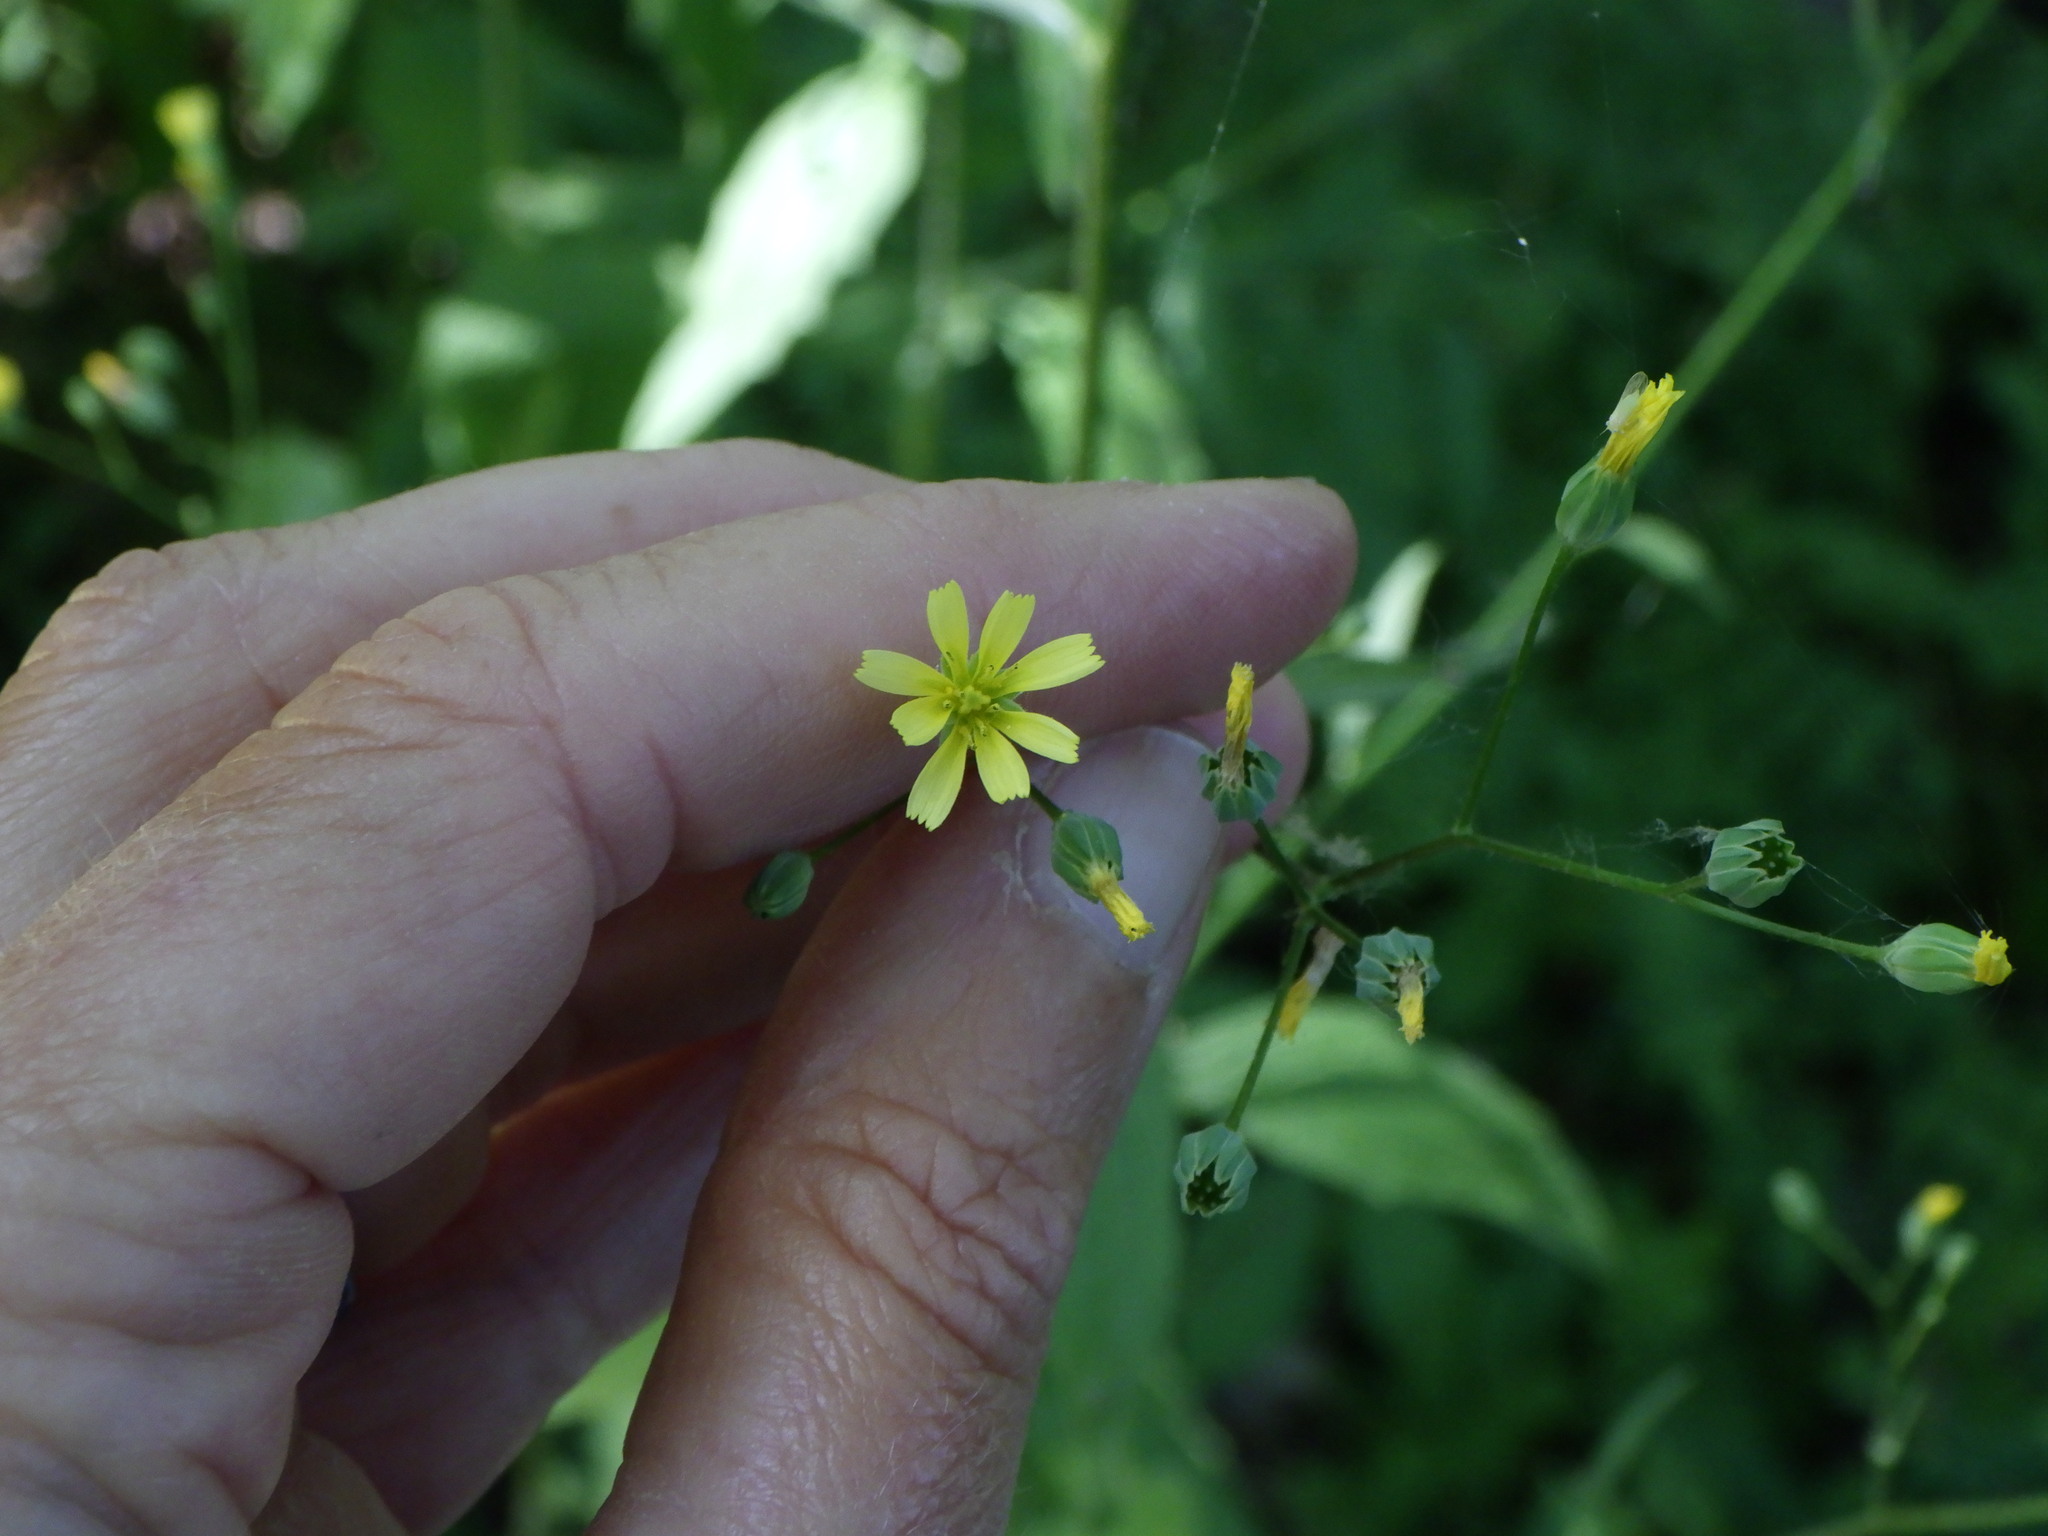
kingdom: Plantae
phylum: Tracheophyta
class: Magnoliopsida
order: Asterales
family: Asteraceae
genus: Lapsana
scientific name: Lapsana communis
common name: Nipplewort
